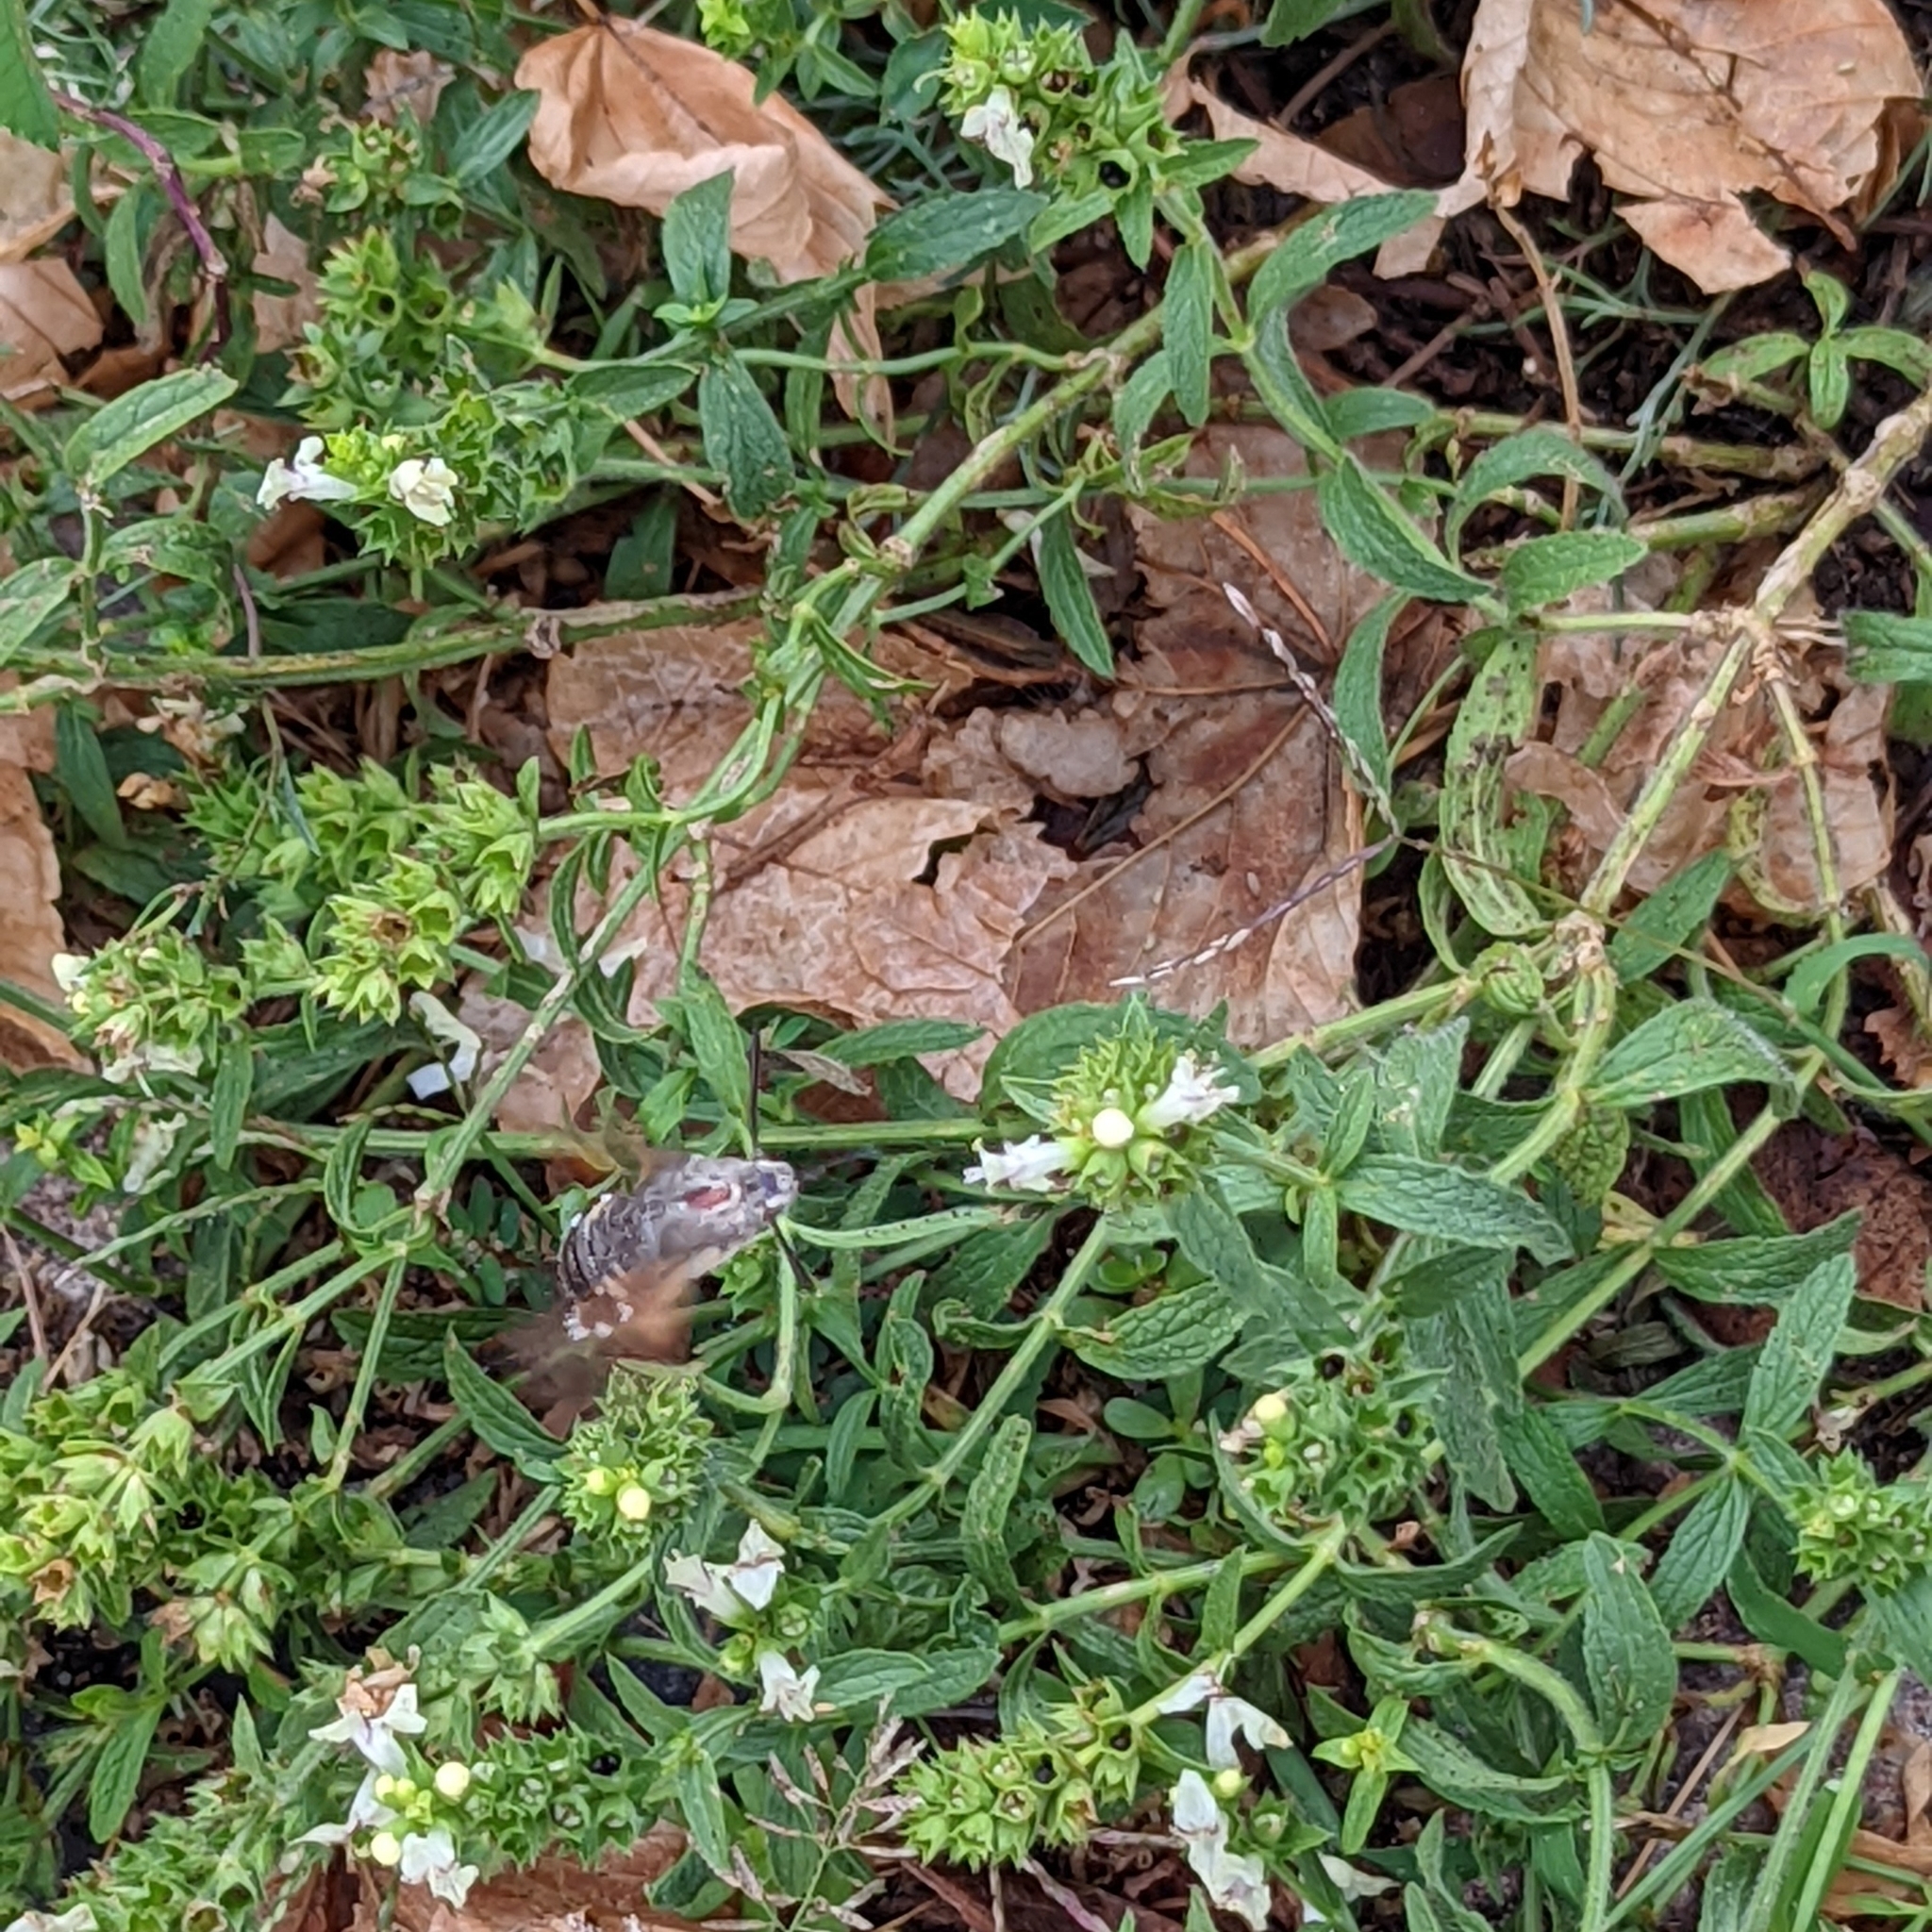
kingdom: Animalia
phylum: Arthropoda
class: Insecta
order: Lepidoptera
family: Sphingidae
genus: Macroglossum
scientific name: Macroglossum stellatarum
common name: Humming-bird hawk-moth
